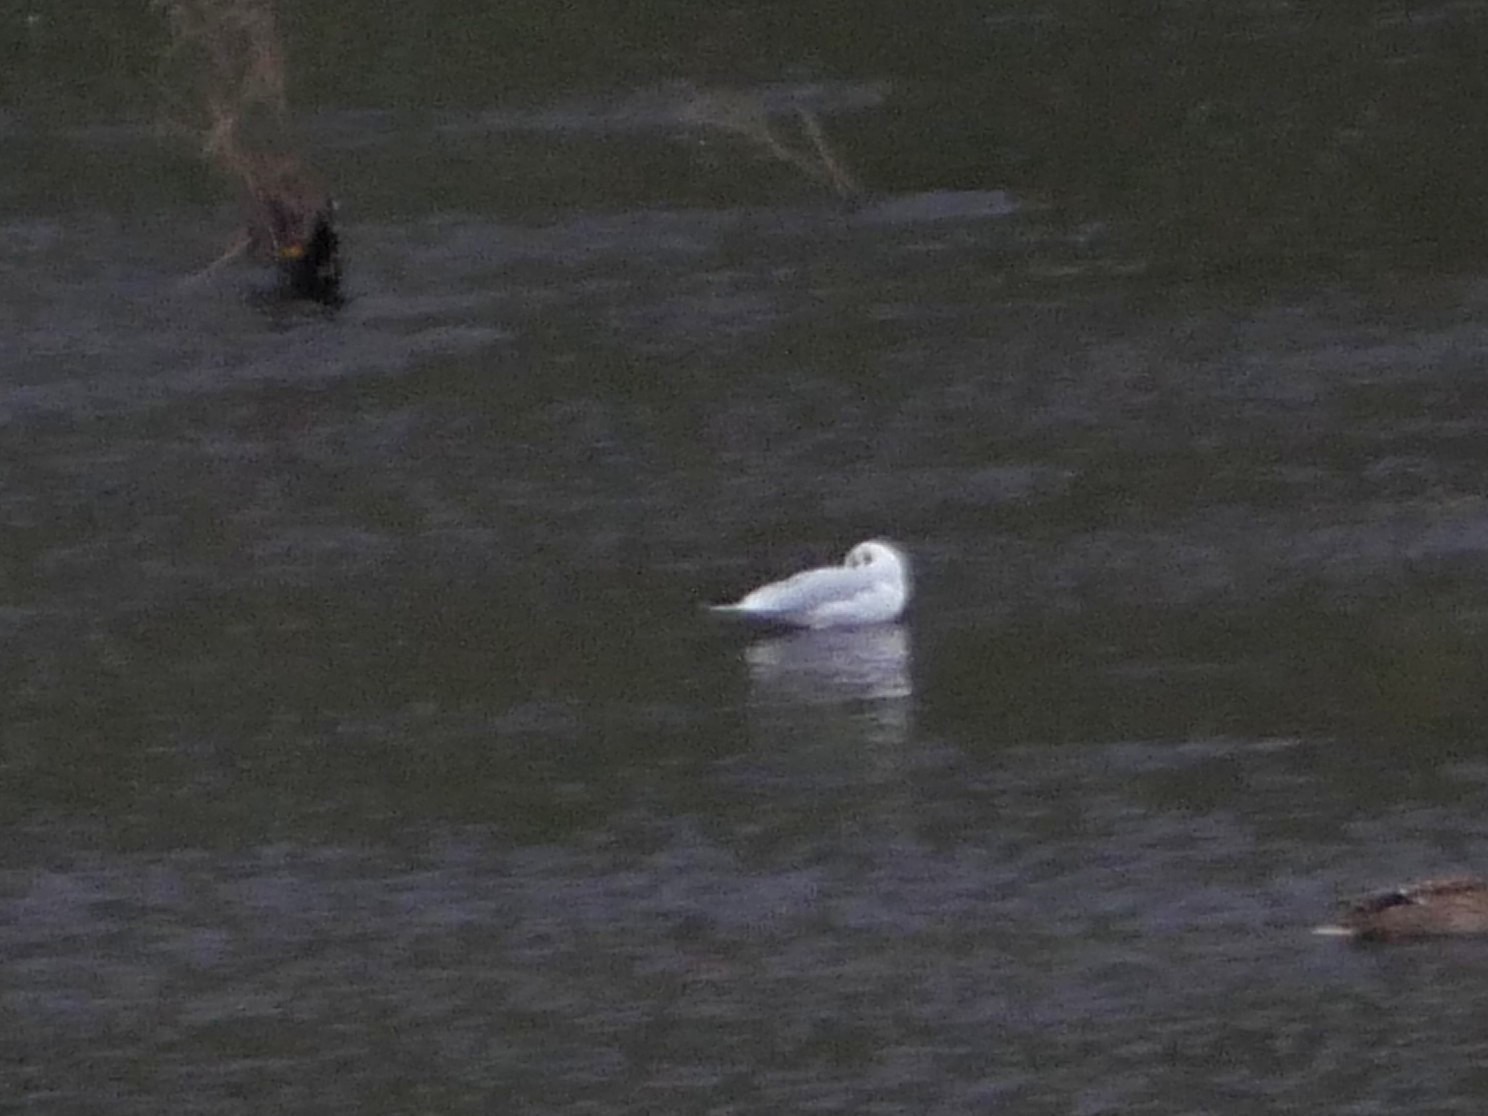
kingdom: Animalia
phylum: Chordata
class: Aves
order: Charadriiformes
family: Laridae
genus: Chroicocephalus
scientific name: Chroicocephalus ridibundus
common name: Black-headed gull
